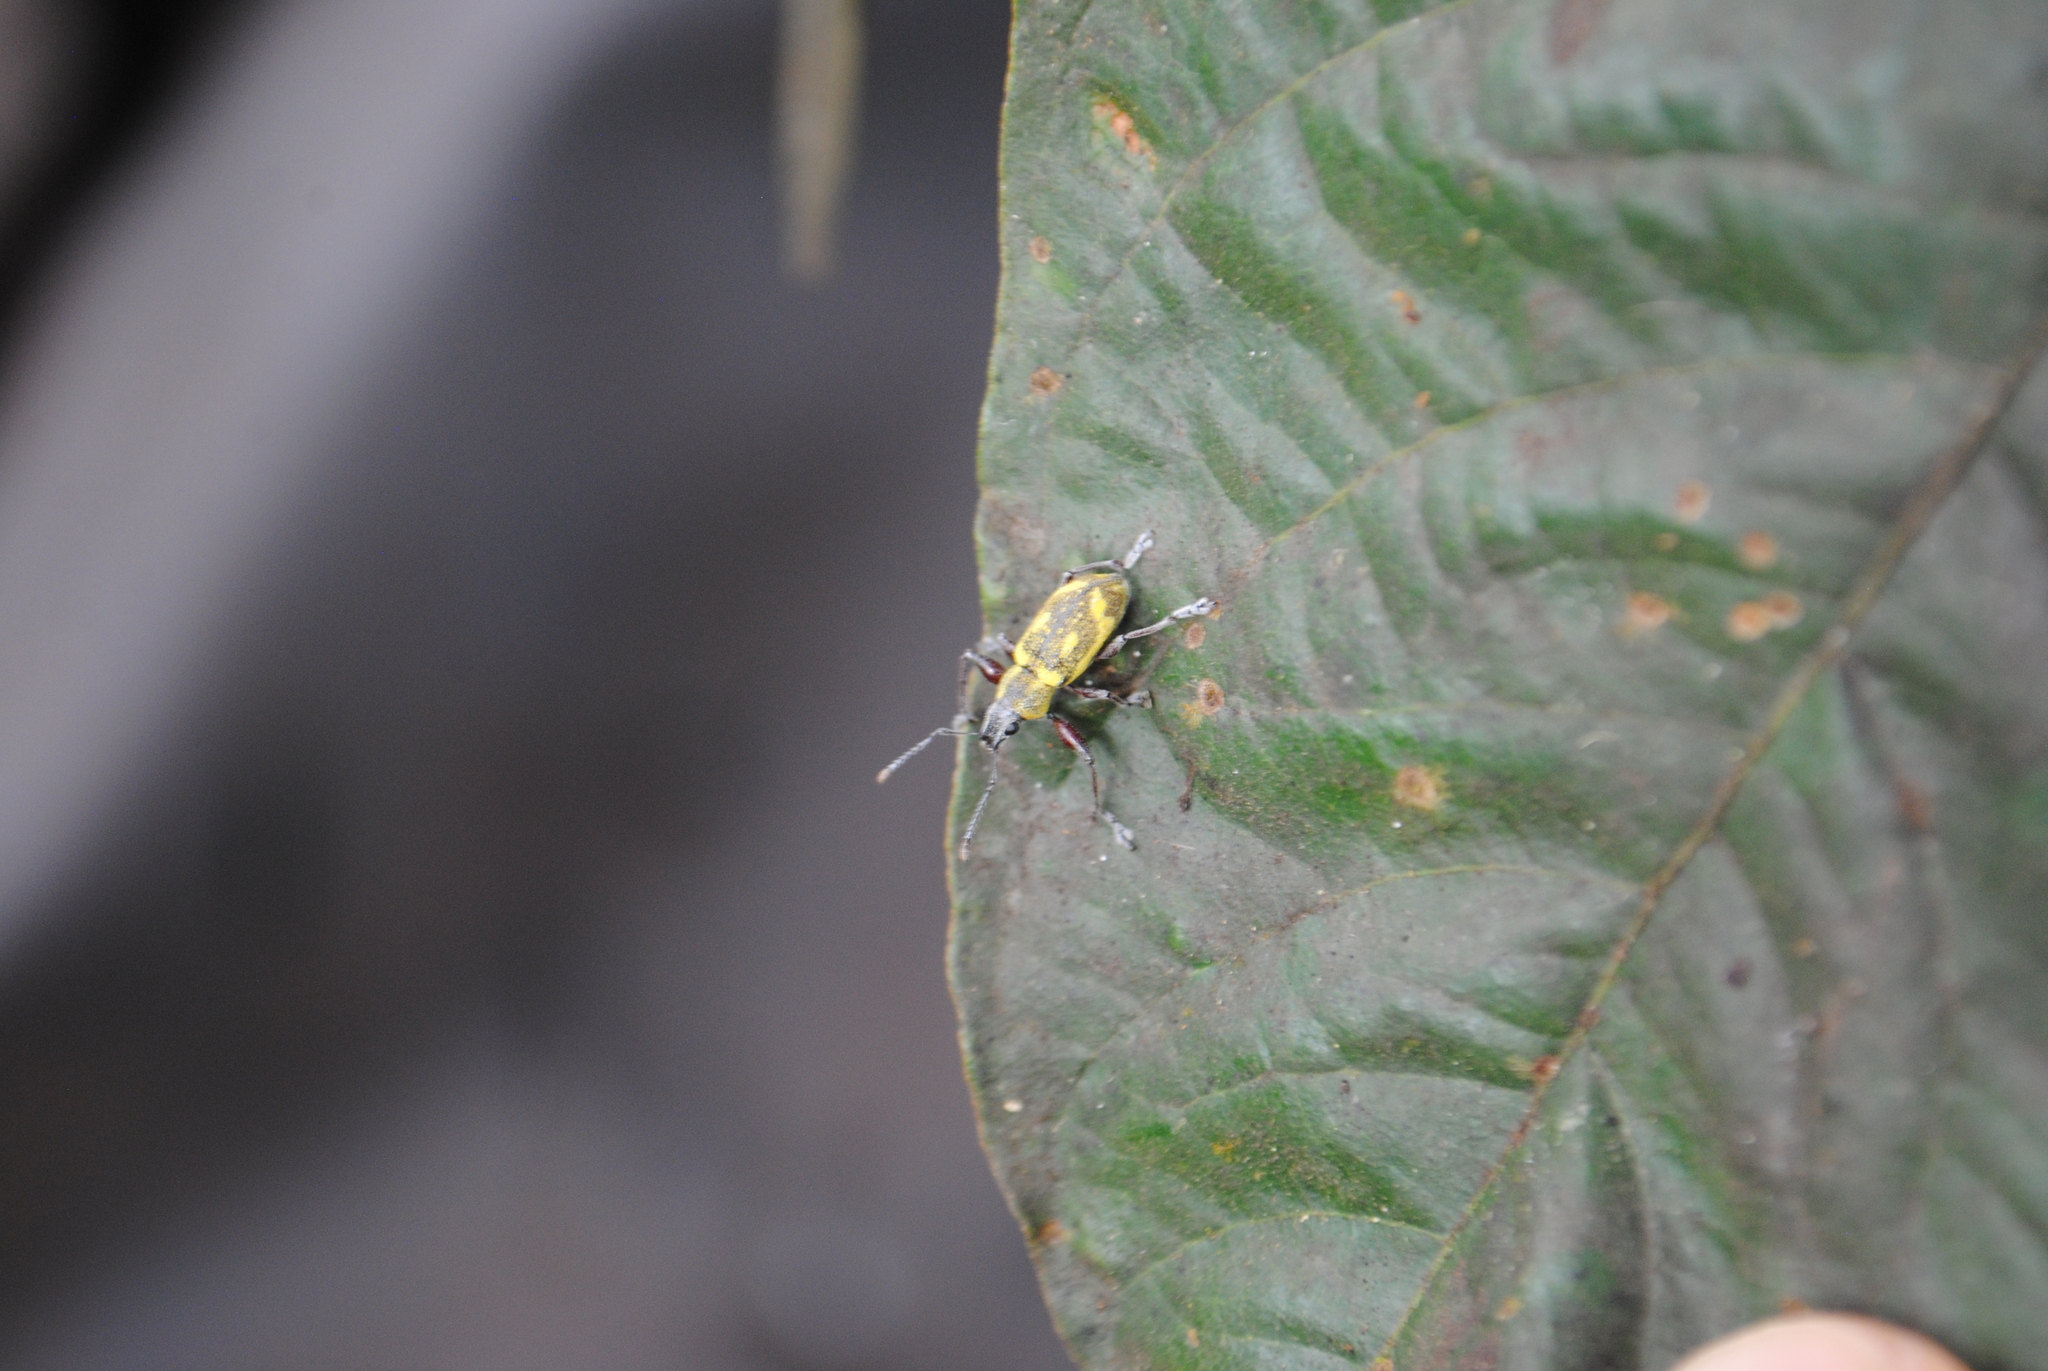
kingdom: Animalia
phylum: Arthropoda
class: Insecta
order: Coleoptera
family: Curculionidae
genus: Galapaganus
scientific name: Galapaganus howdenae
